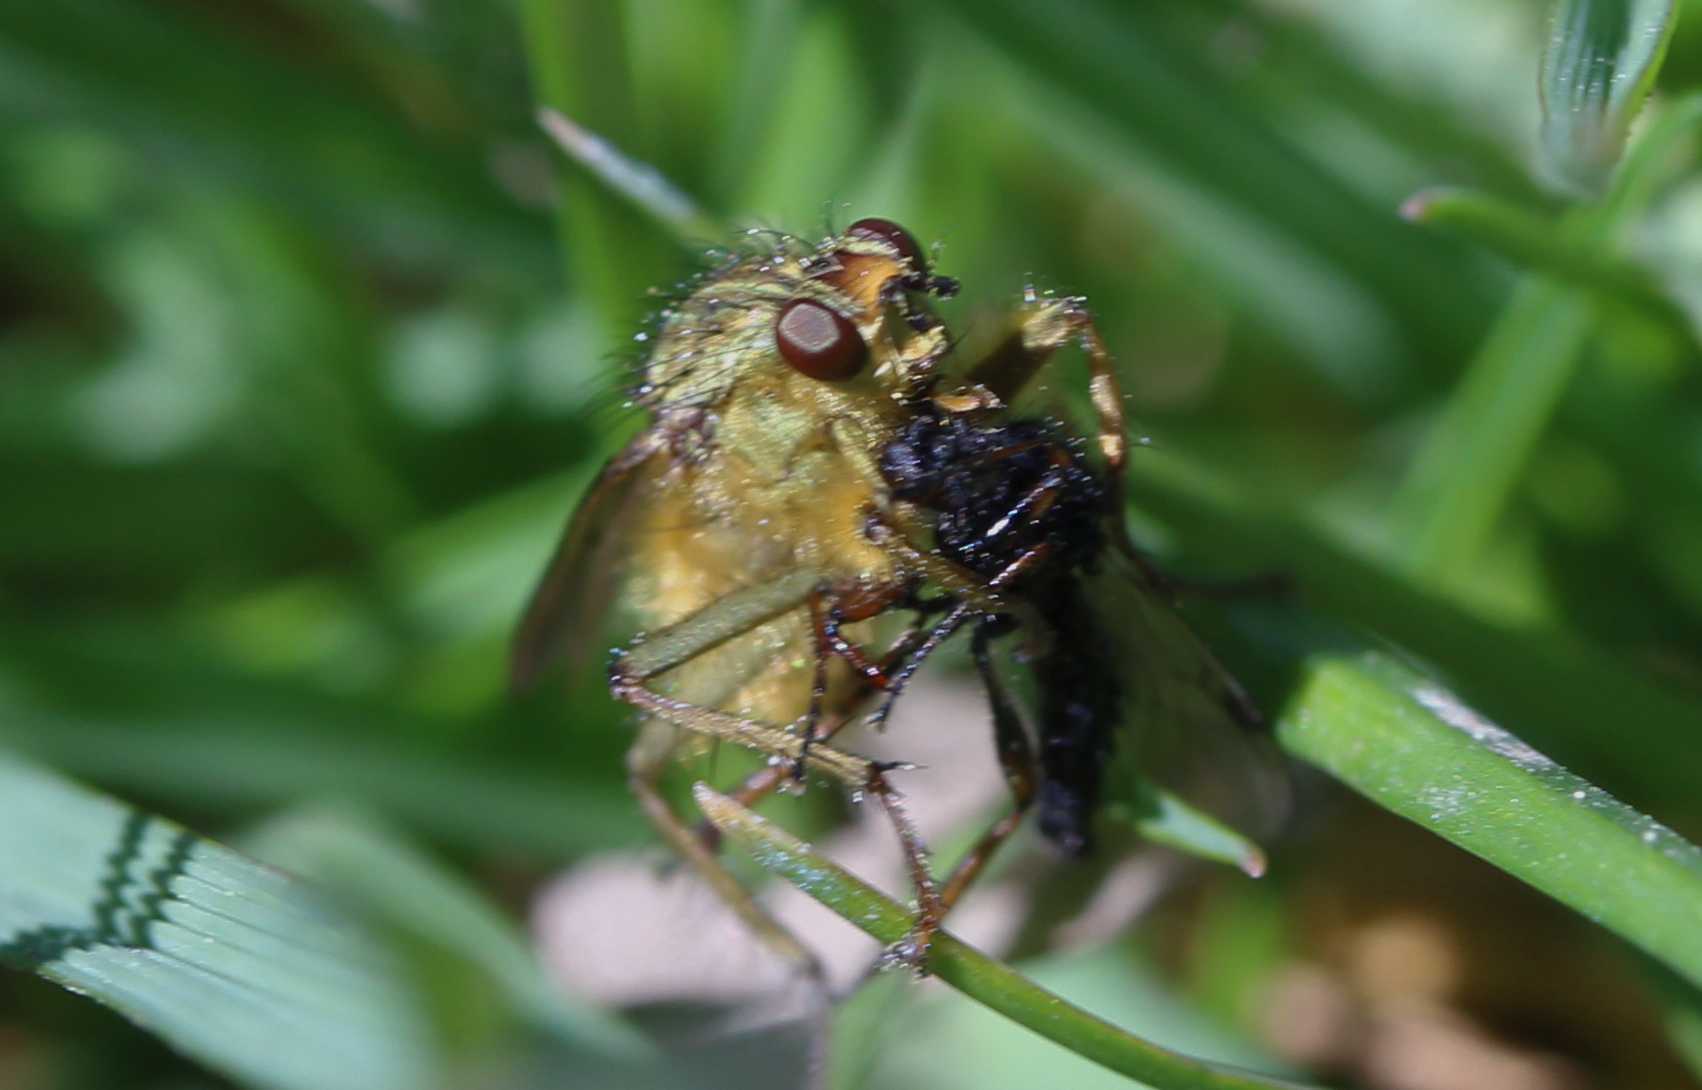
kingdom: Animalia
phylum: Arthropoda
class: Insecta
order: Diptera
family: Scathophagidae
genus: Scathophaga
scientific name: Scathophaga stercoraria
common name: Yellow dung fly
